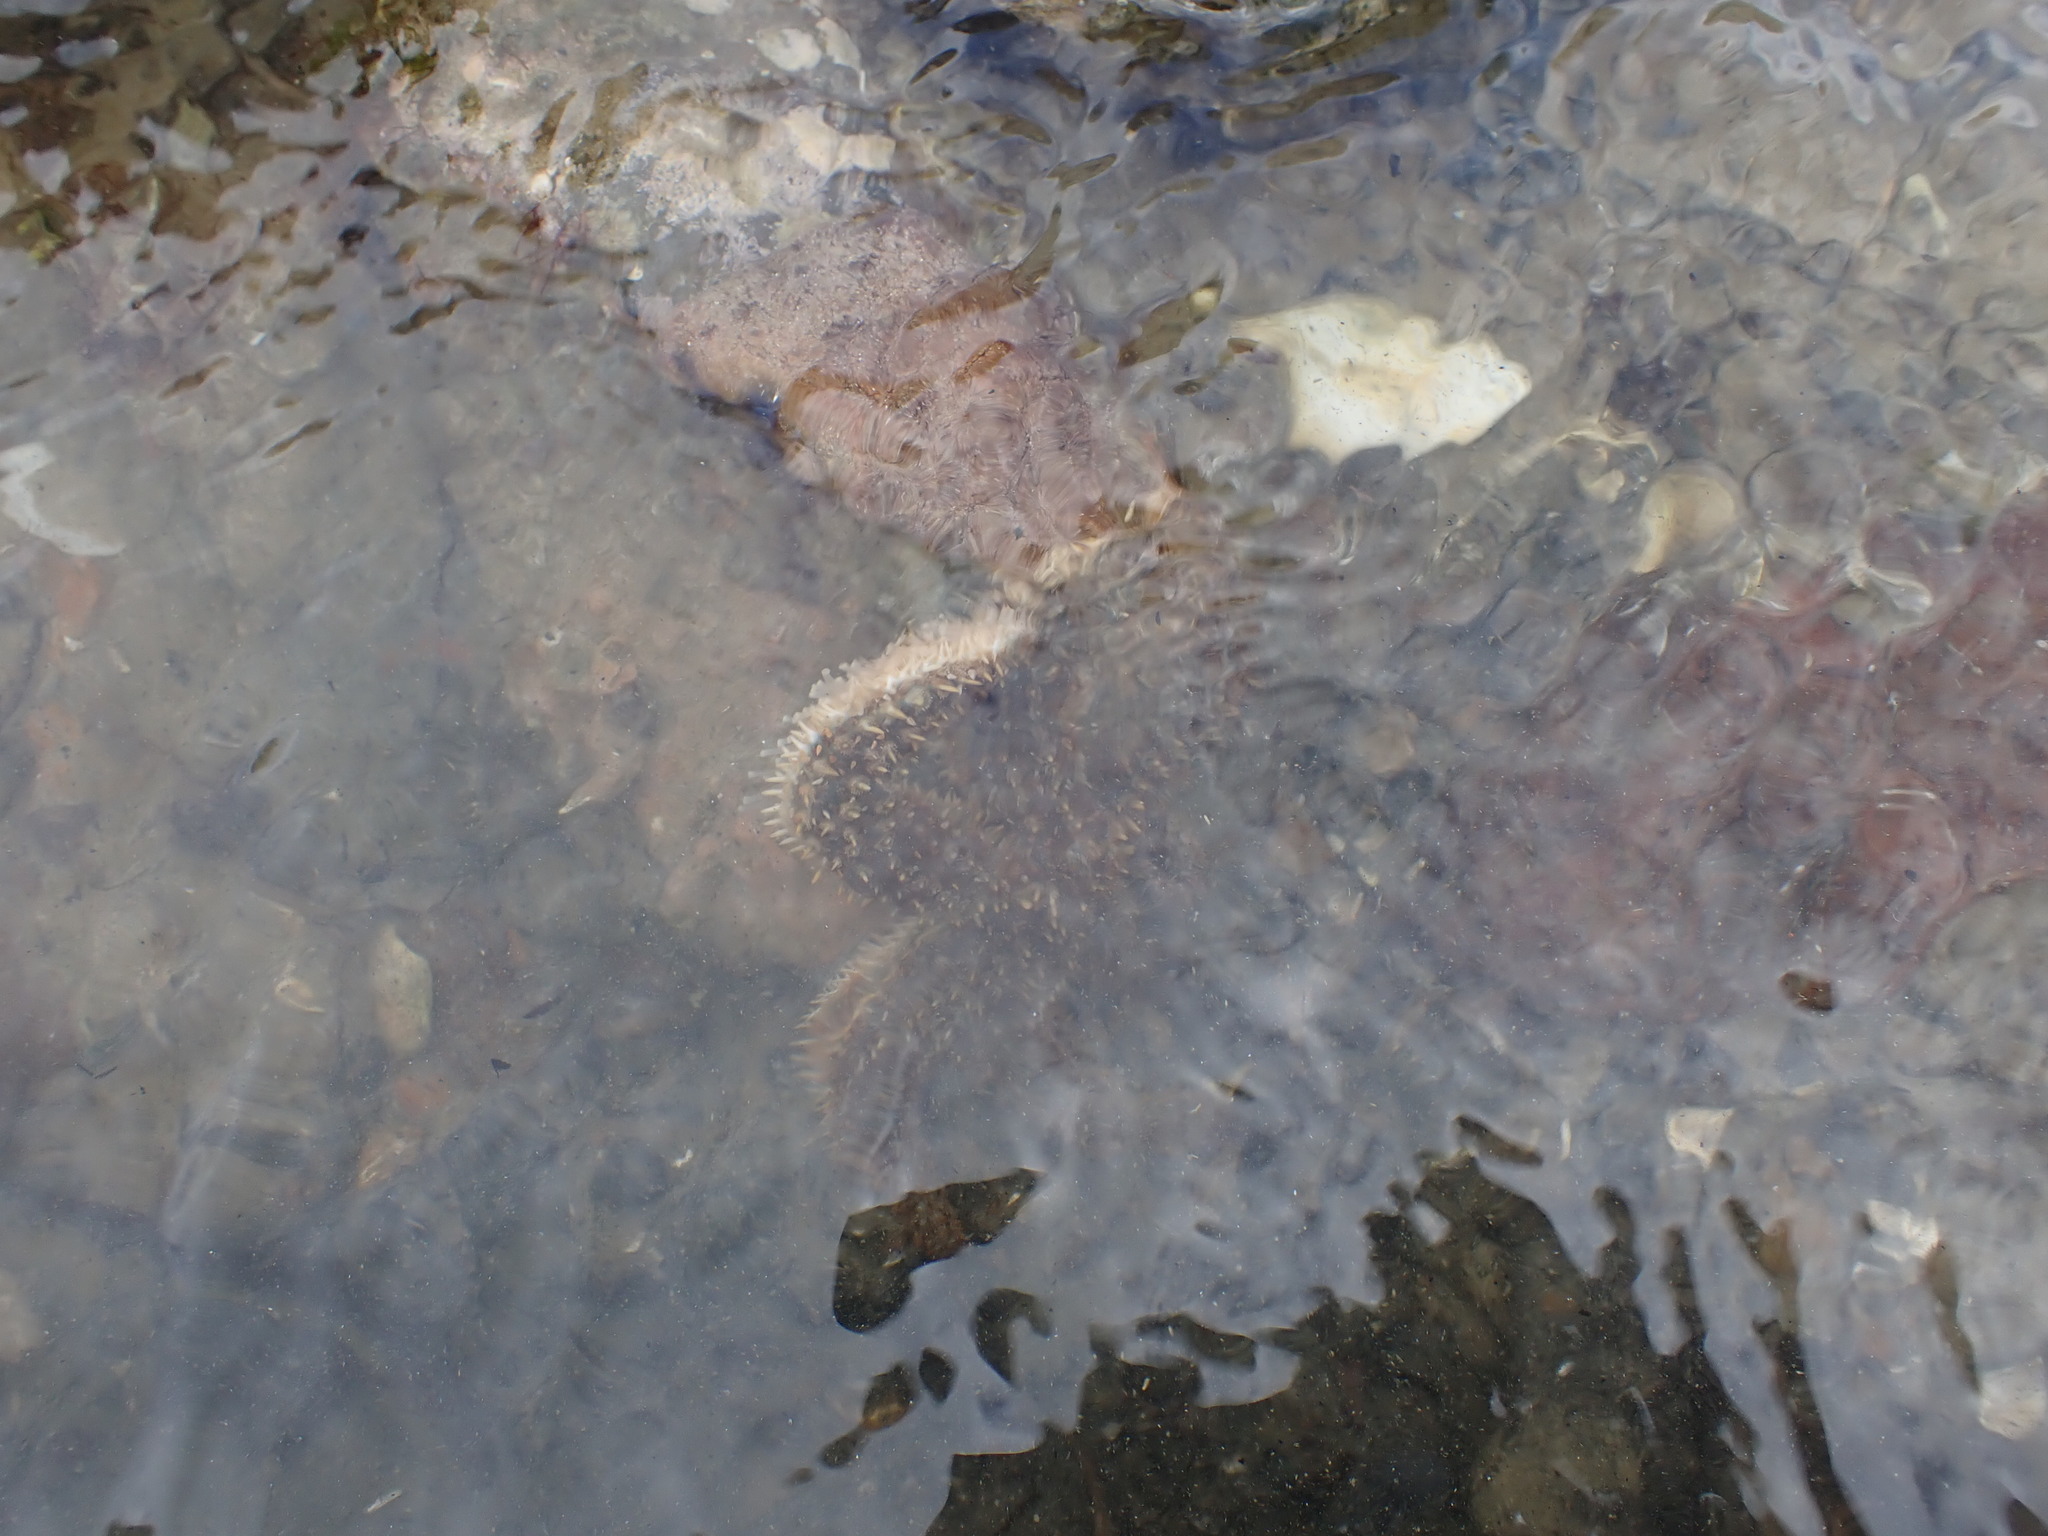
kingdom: Animalia
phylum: Echinodermata
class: Asteroidea
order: Forcipulatida
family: Asteriidae
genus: Coscinasterias
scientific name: Coscinasterias muricata
